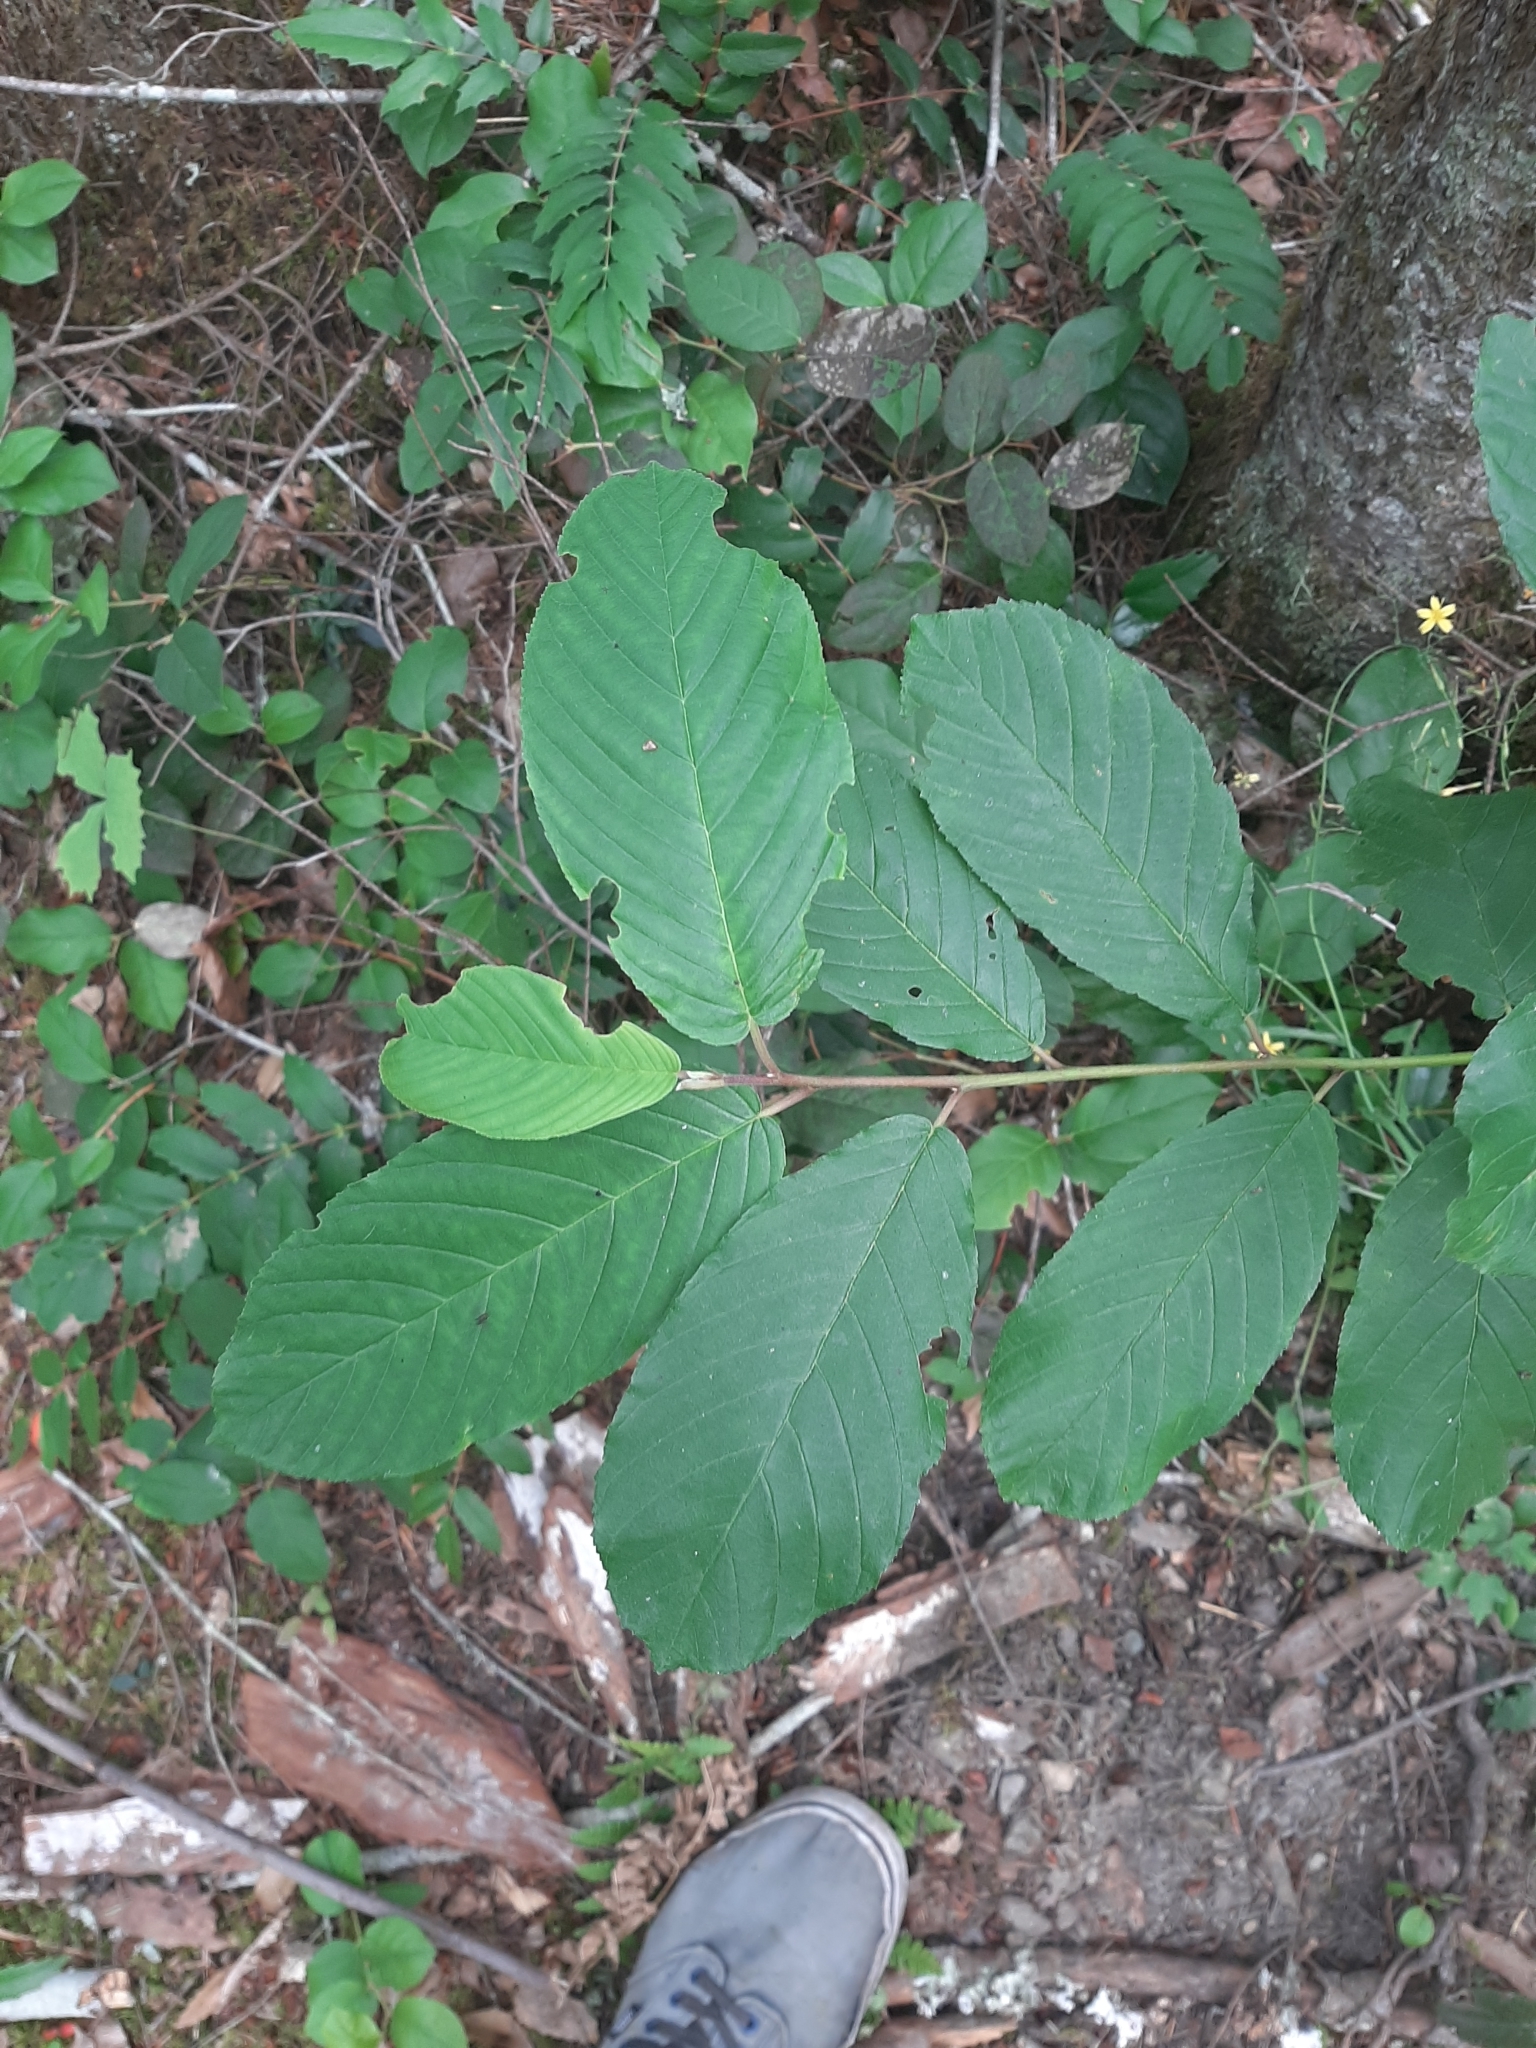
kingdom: Plantae
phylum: Tracheophyta
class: Magnoliopsida
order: Rosales
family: Rhamnaceae
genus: Frangula
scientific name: Frangula purshiana
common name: Cascara buckthorn
